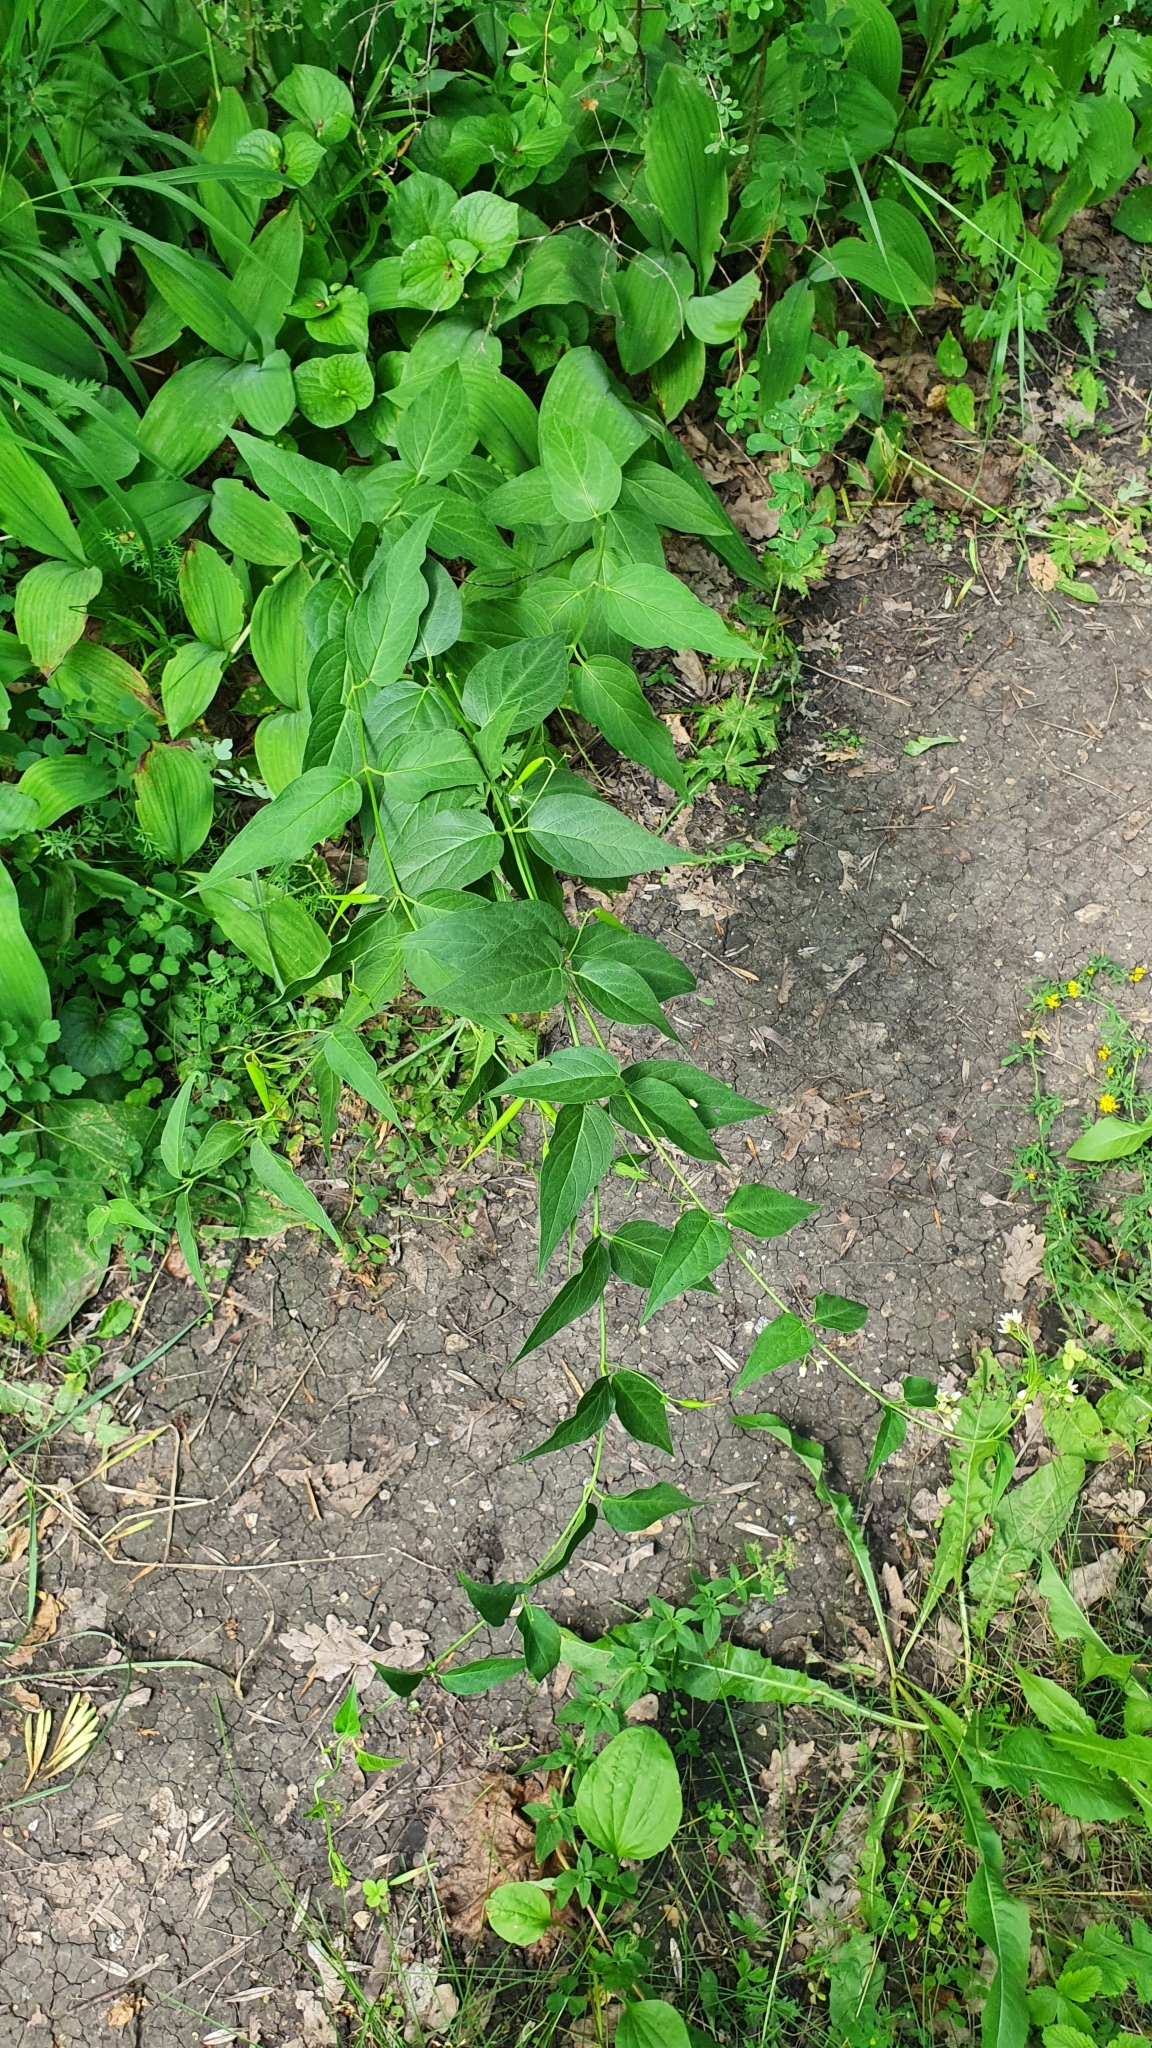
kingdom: Plantae
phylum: Tracheophyta
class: Magnoliopsida
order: Gentianales
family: Apocynaceae
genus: Vincetoxicum
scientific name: Vincetoxicum hirundinaria
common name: White swallowwort
